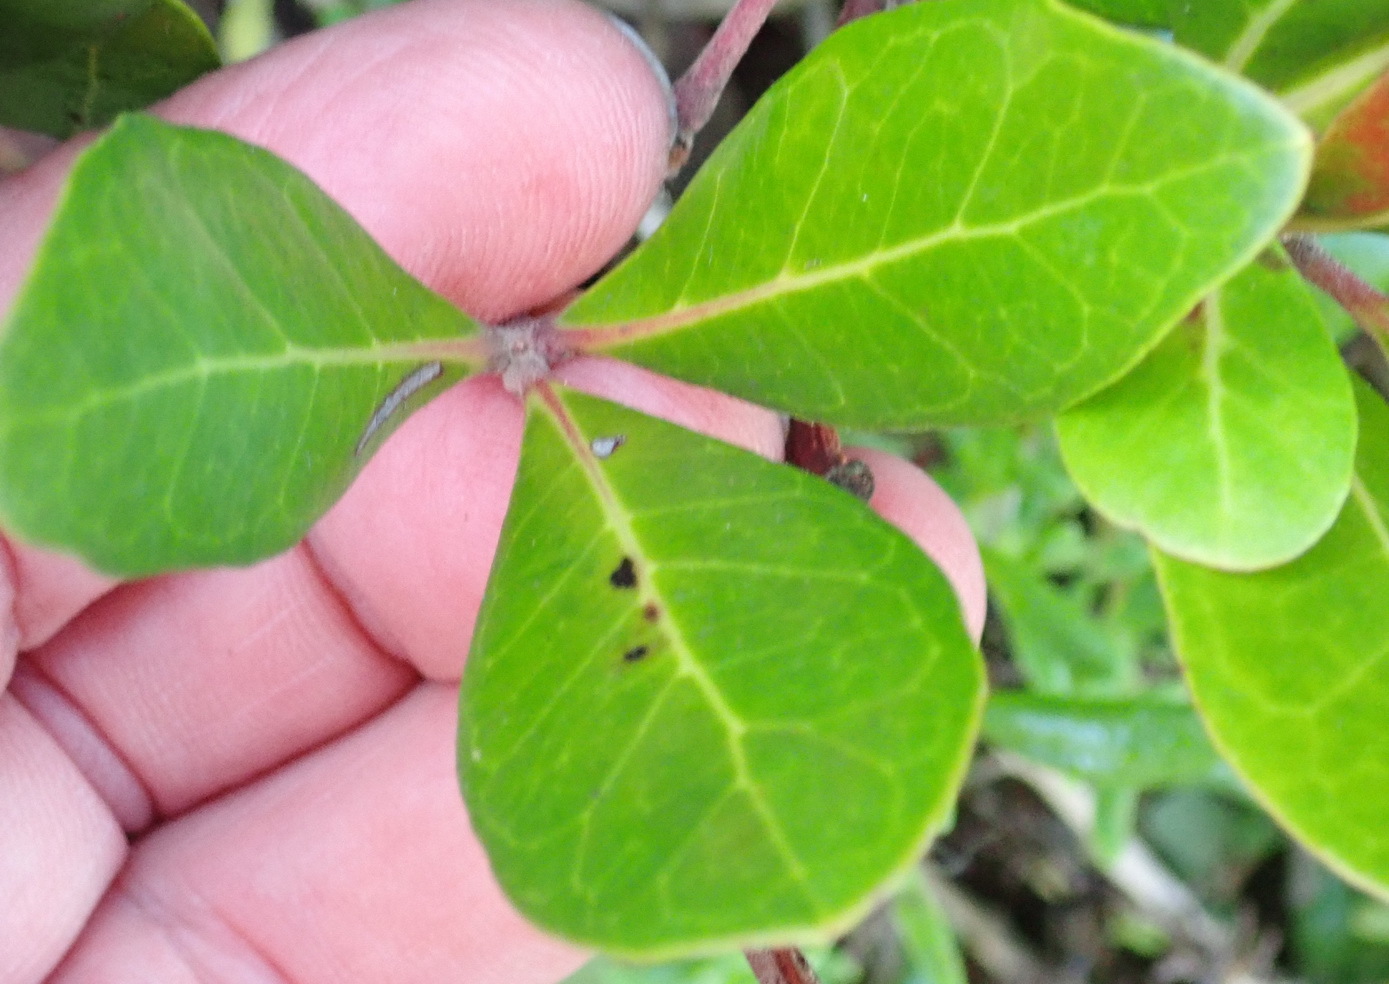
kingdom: Plantae
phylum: Tracheophyta
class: Magnoliopsida
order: Vitales
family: Vitaceae
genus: Rhoicissus
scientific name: Rhoicissus digitata
